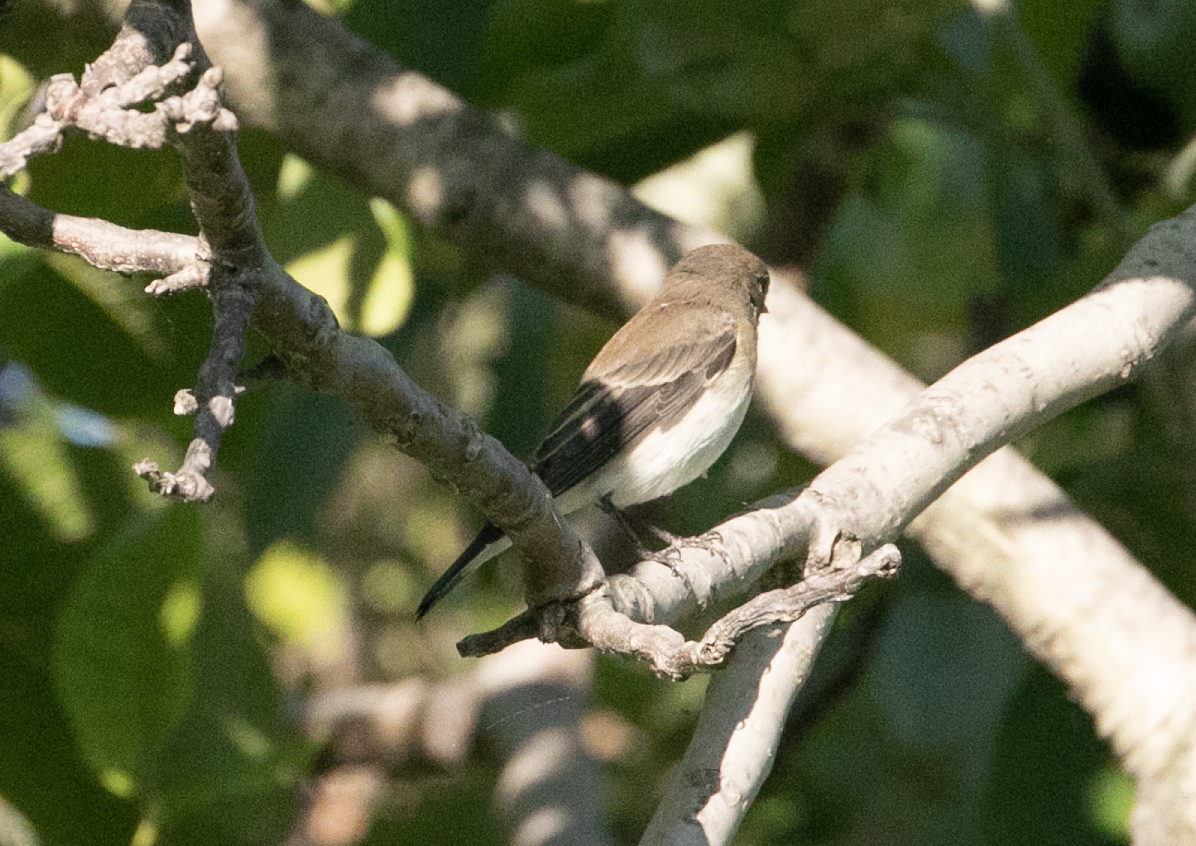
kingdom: Animalia
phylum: Chordata
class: Aves
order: Passeriformes
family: Muscicapidae
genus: Ficedula
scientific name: Ficedula hypoleuca
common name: European pied flycatcher
